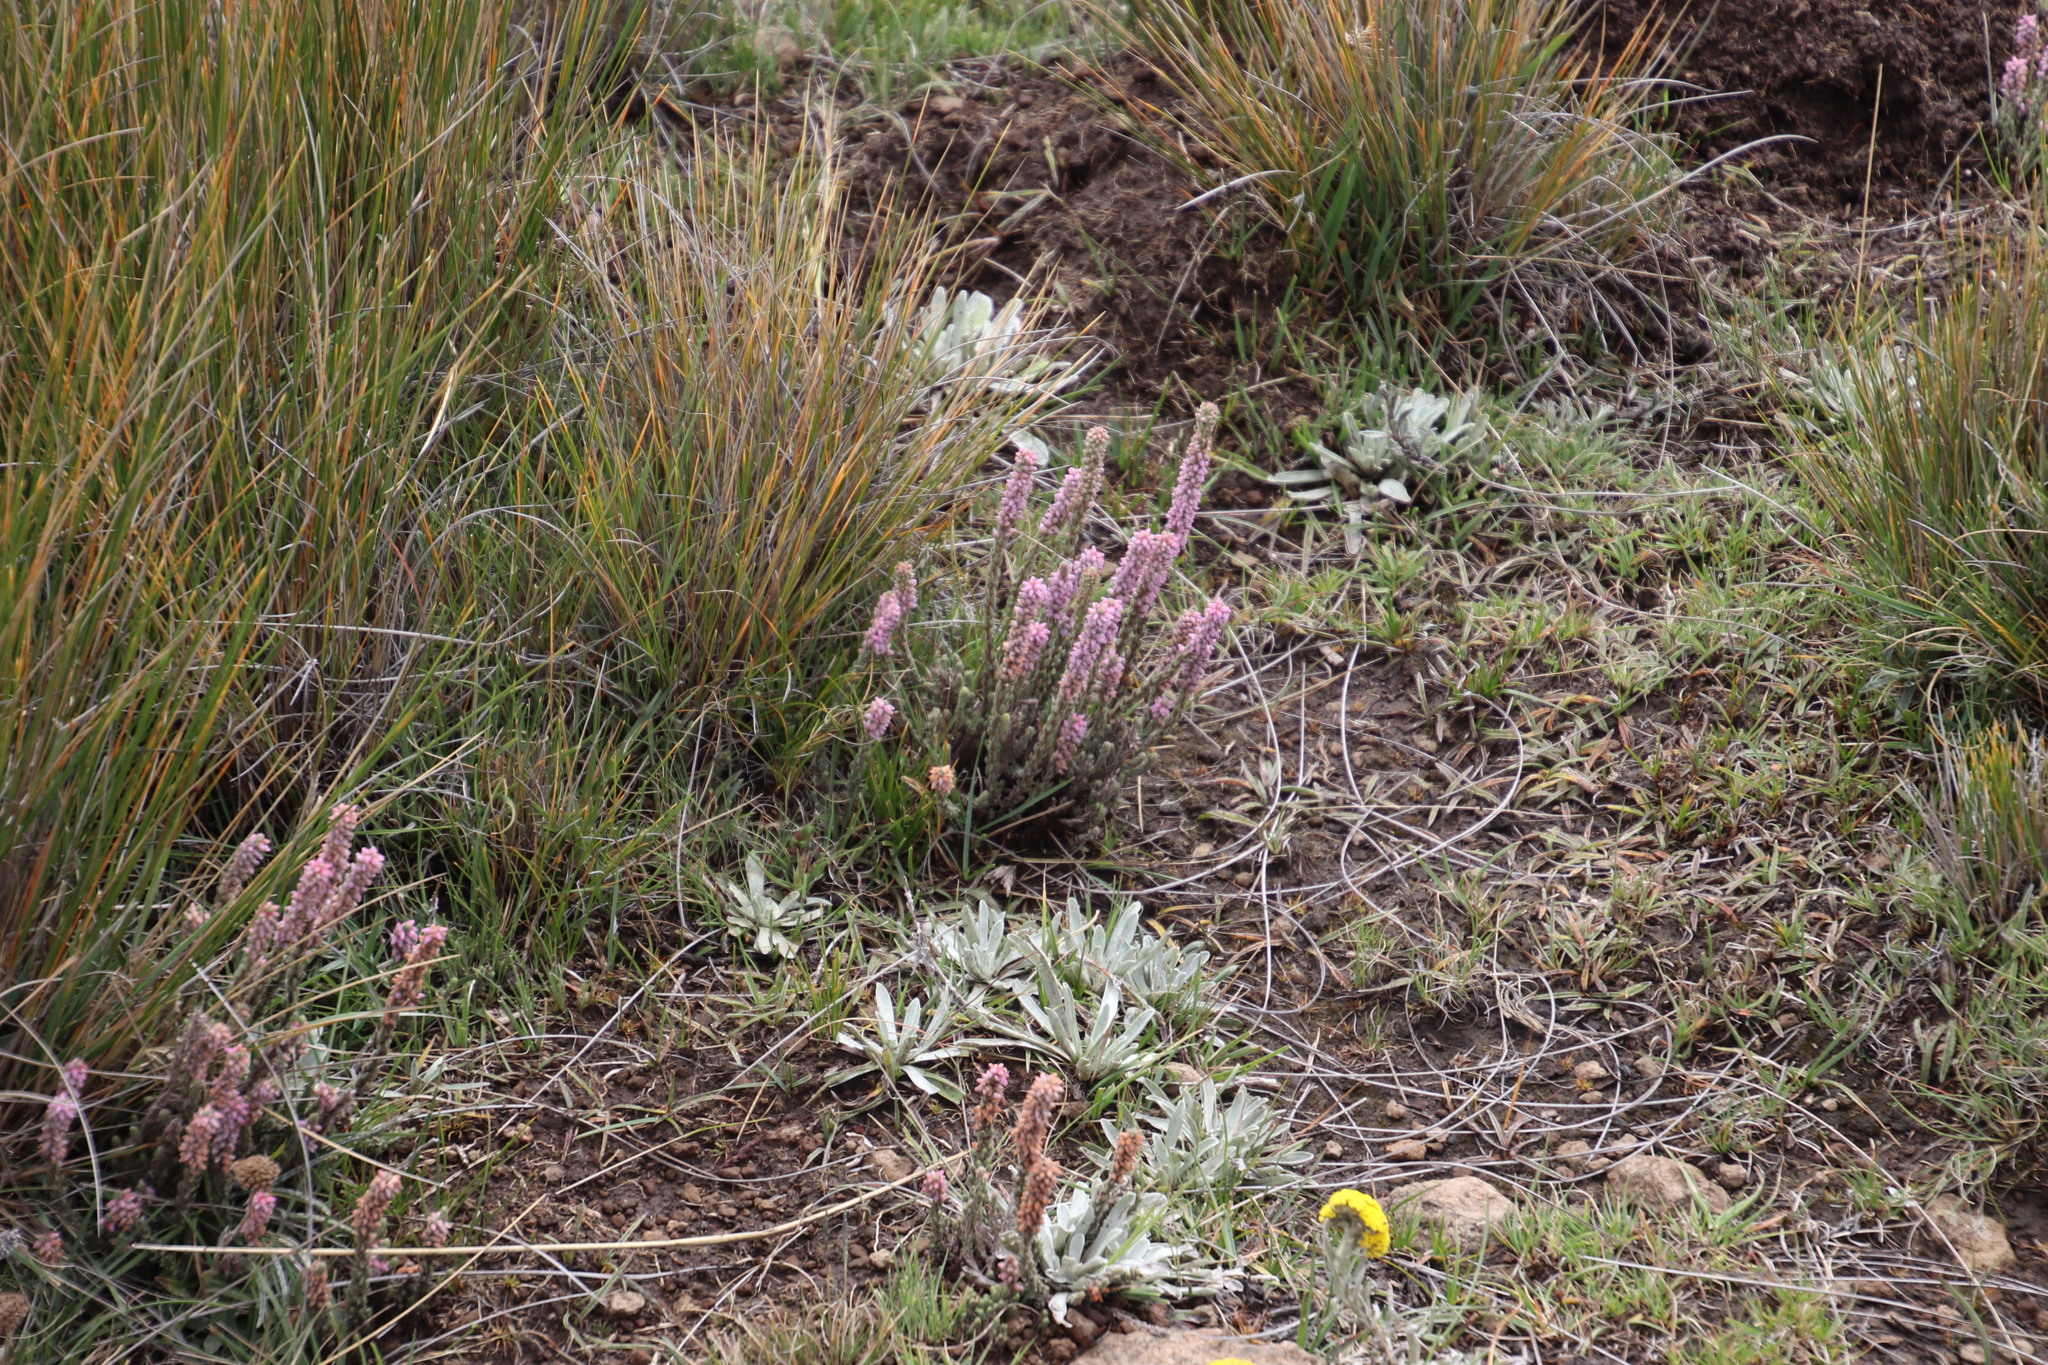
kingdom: Plantae
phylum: Tracheophyta
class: Magnoliopsida
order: Ericales
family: Ericaceae
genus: Erica
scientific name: Erica alopecurus
